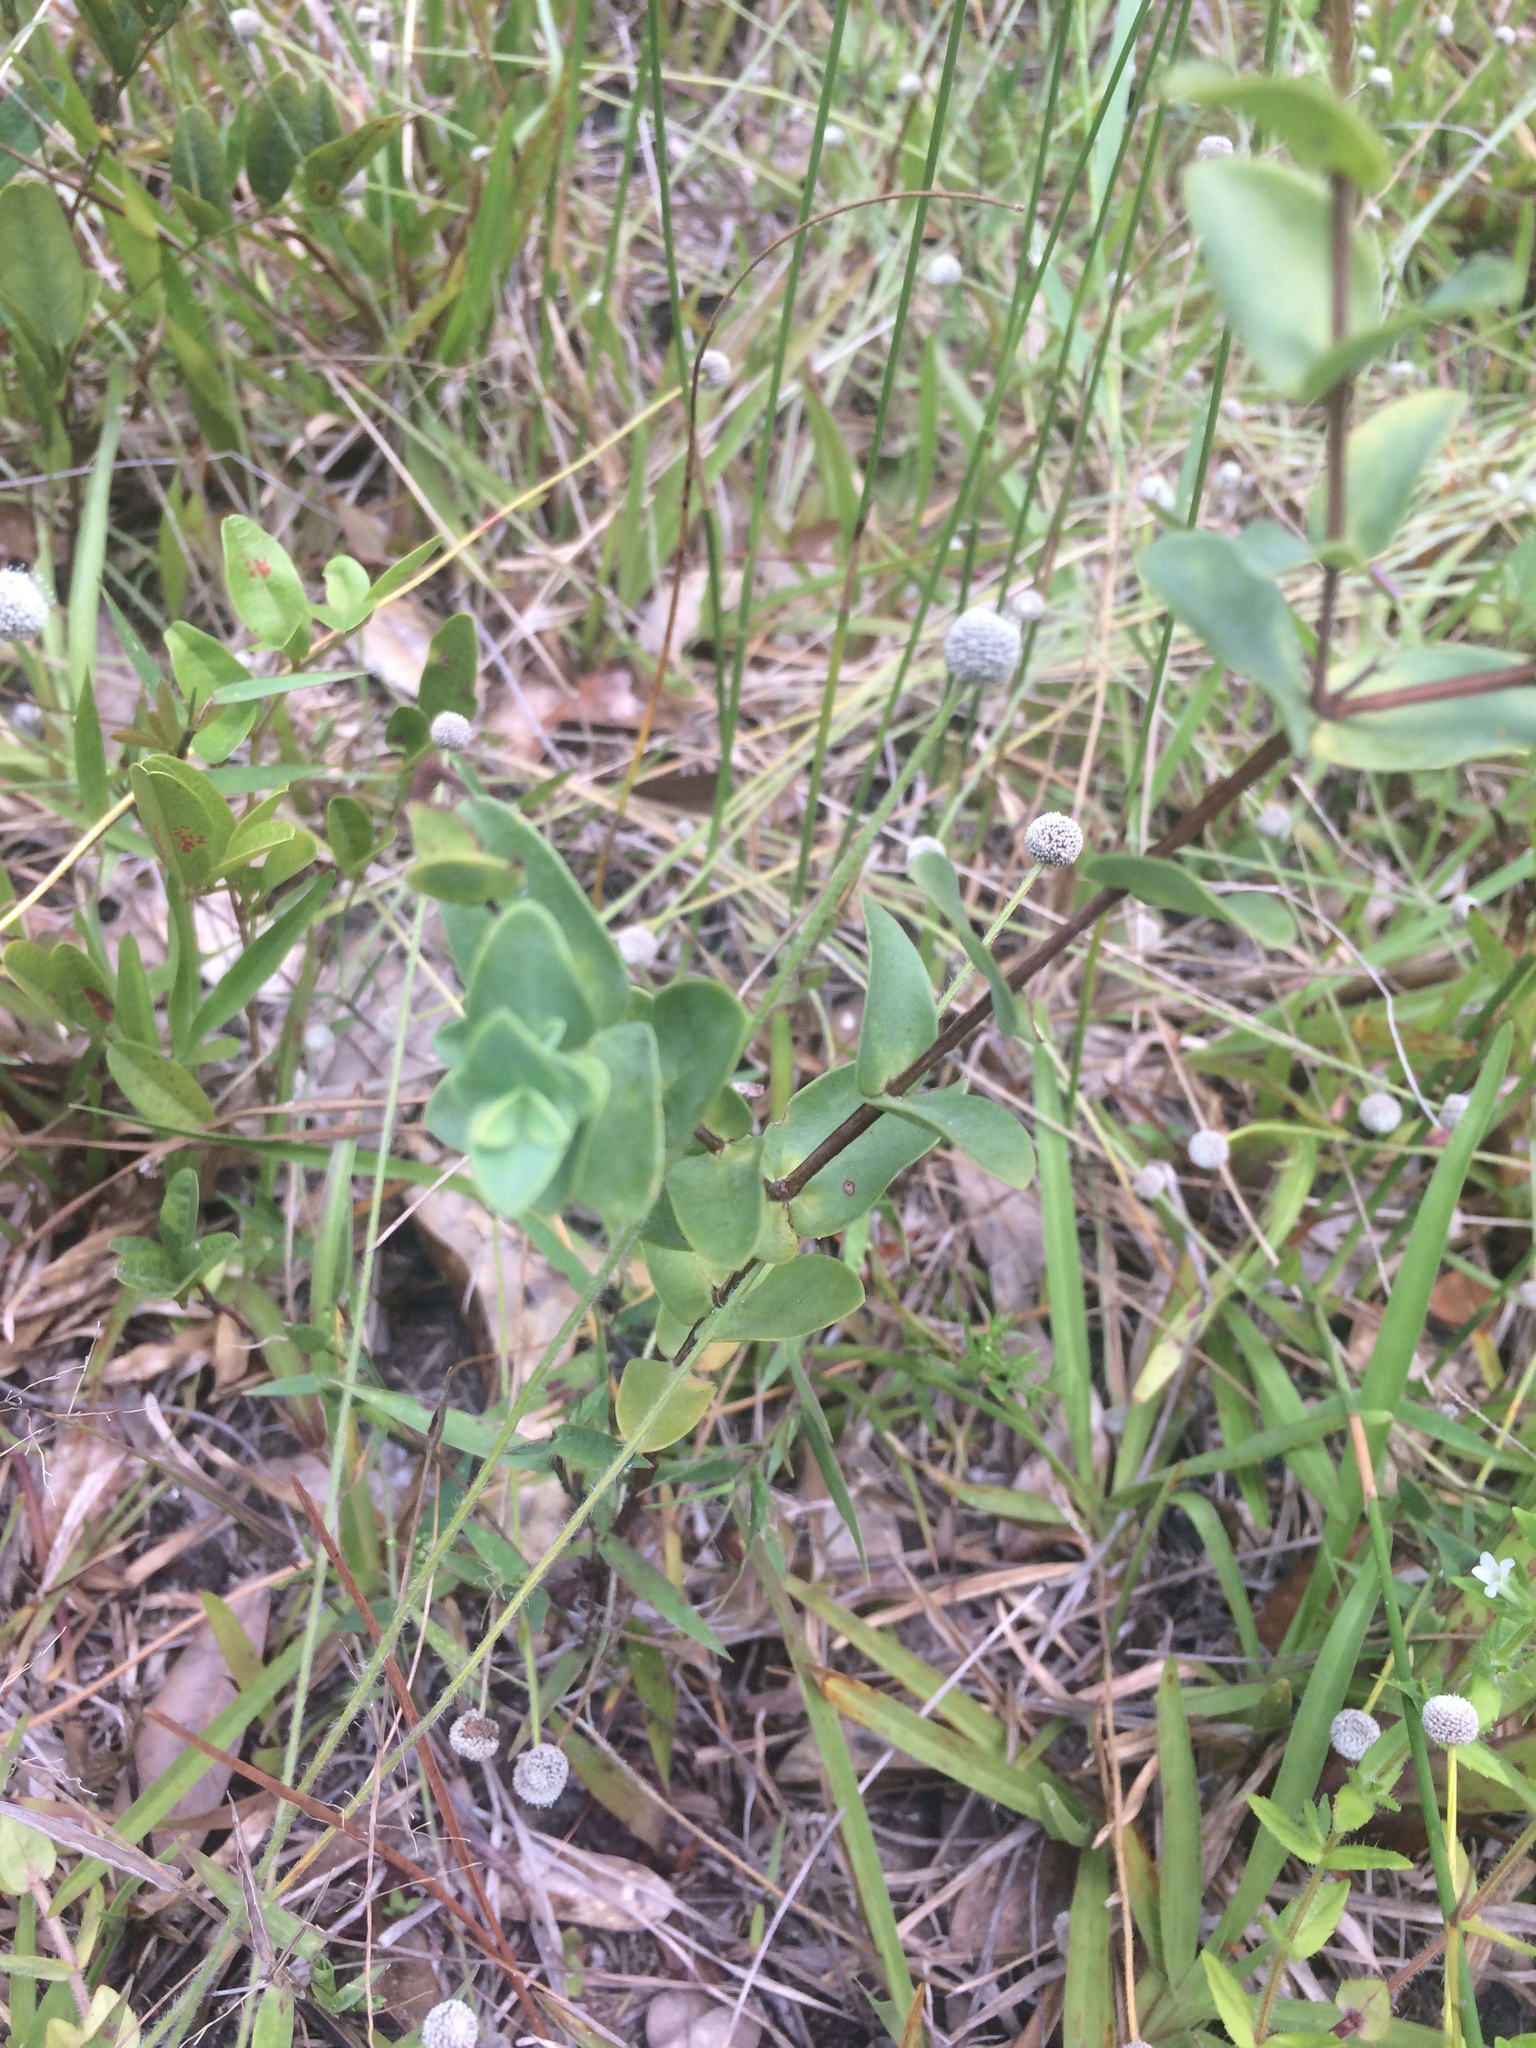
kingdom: Plantae
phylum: Tracheophyta
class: Magnoliopsida
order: Malpighiales
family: Hypericaceae
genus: Hypericum
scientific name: Hypericum tetrapetalum
